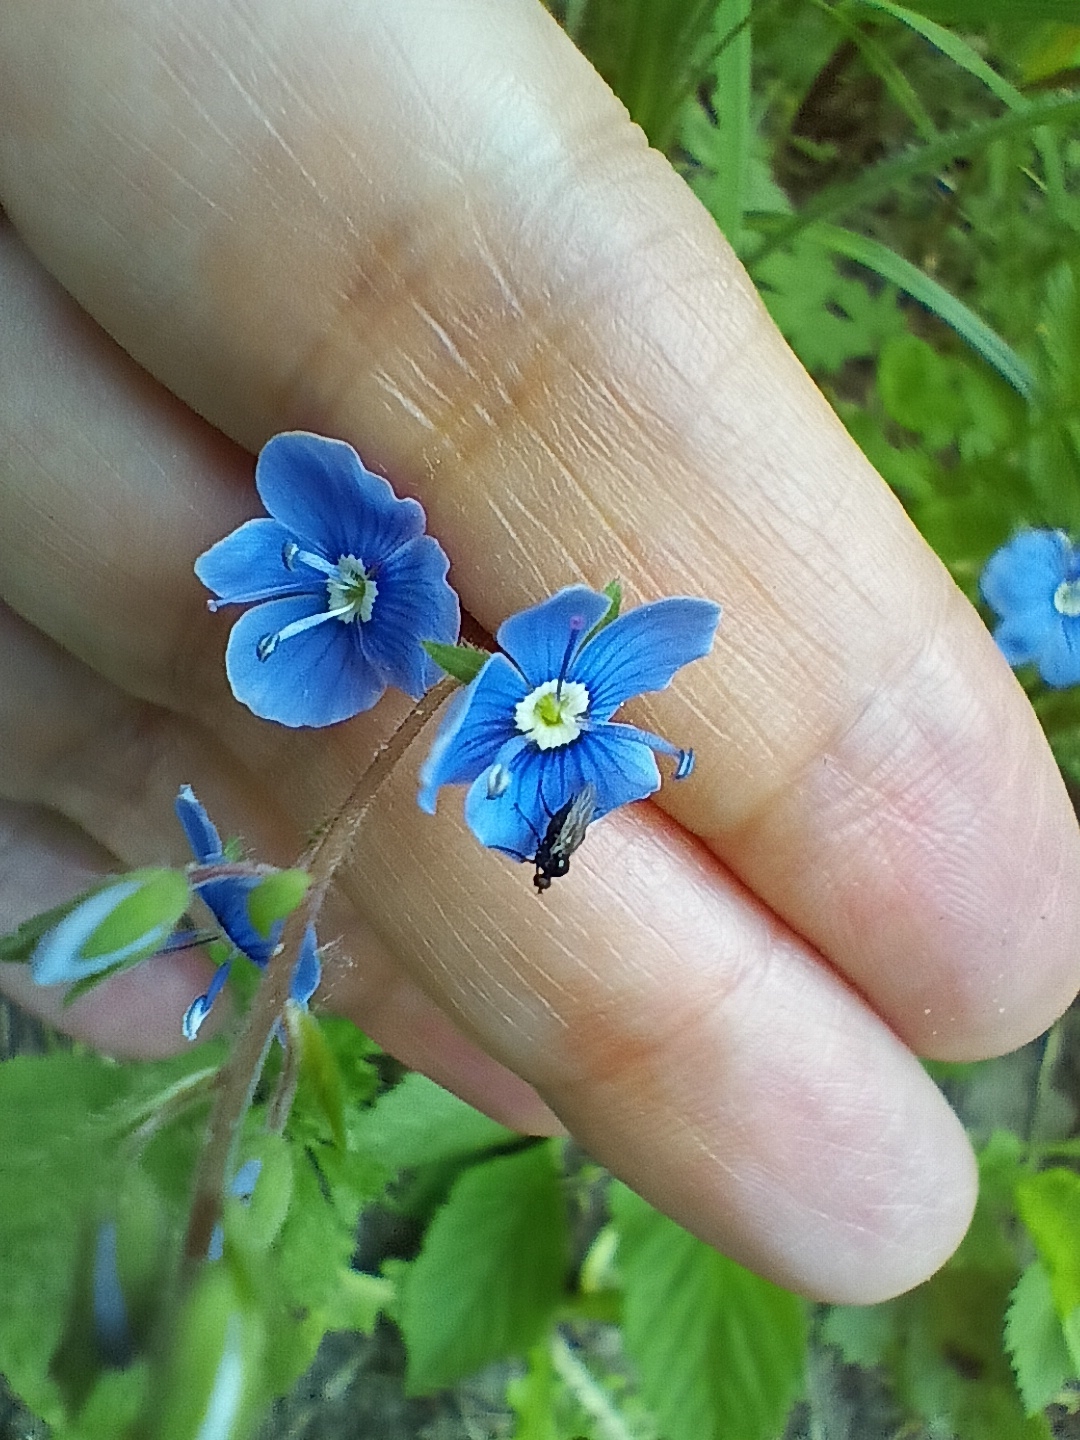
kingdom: Plantae
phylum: Tracheophyta
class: Magnoliopsida
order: Lamiales
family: Plantaginaceae
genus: Veronica
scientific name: Veronica chamaedrys
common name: Germander speedwell
